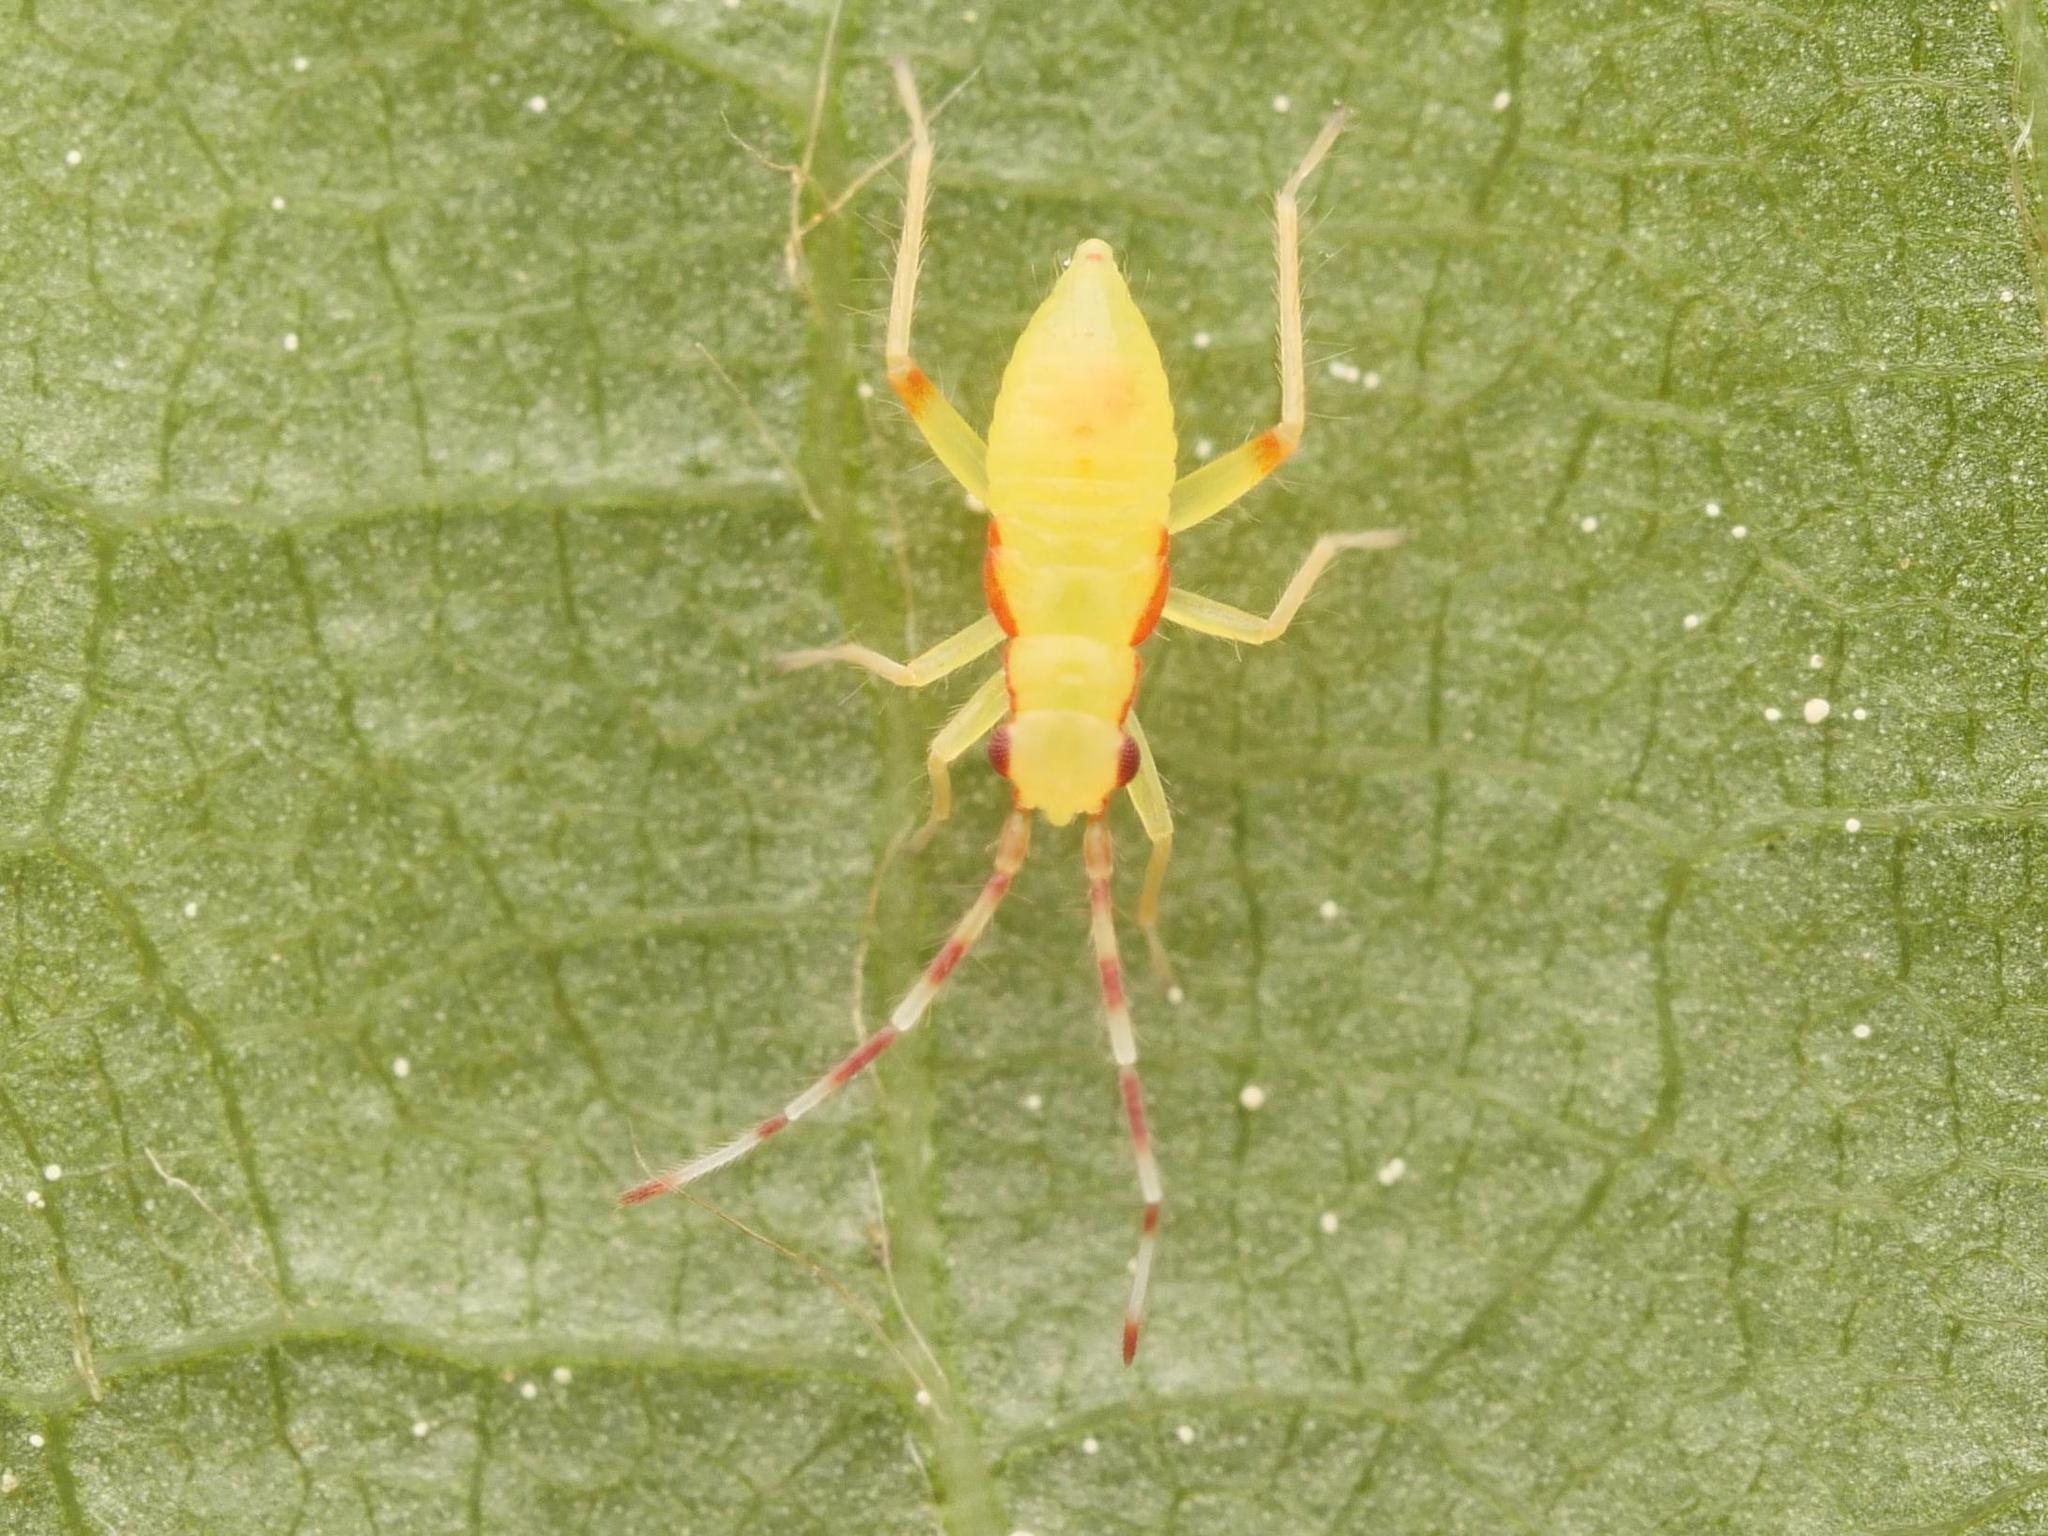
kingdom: Animalia
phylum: Arthropoda
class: Insecta
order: Hemiptera
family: Miridae
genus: Campyloneura
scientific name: Campyloneura virgula
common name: Predatory bug
